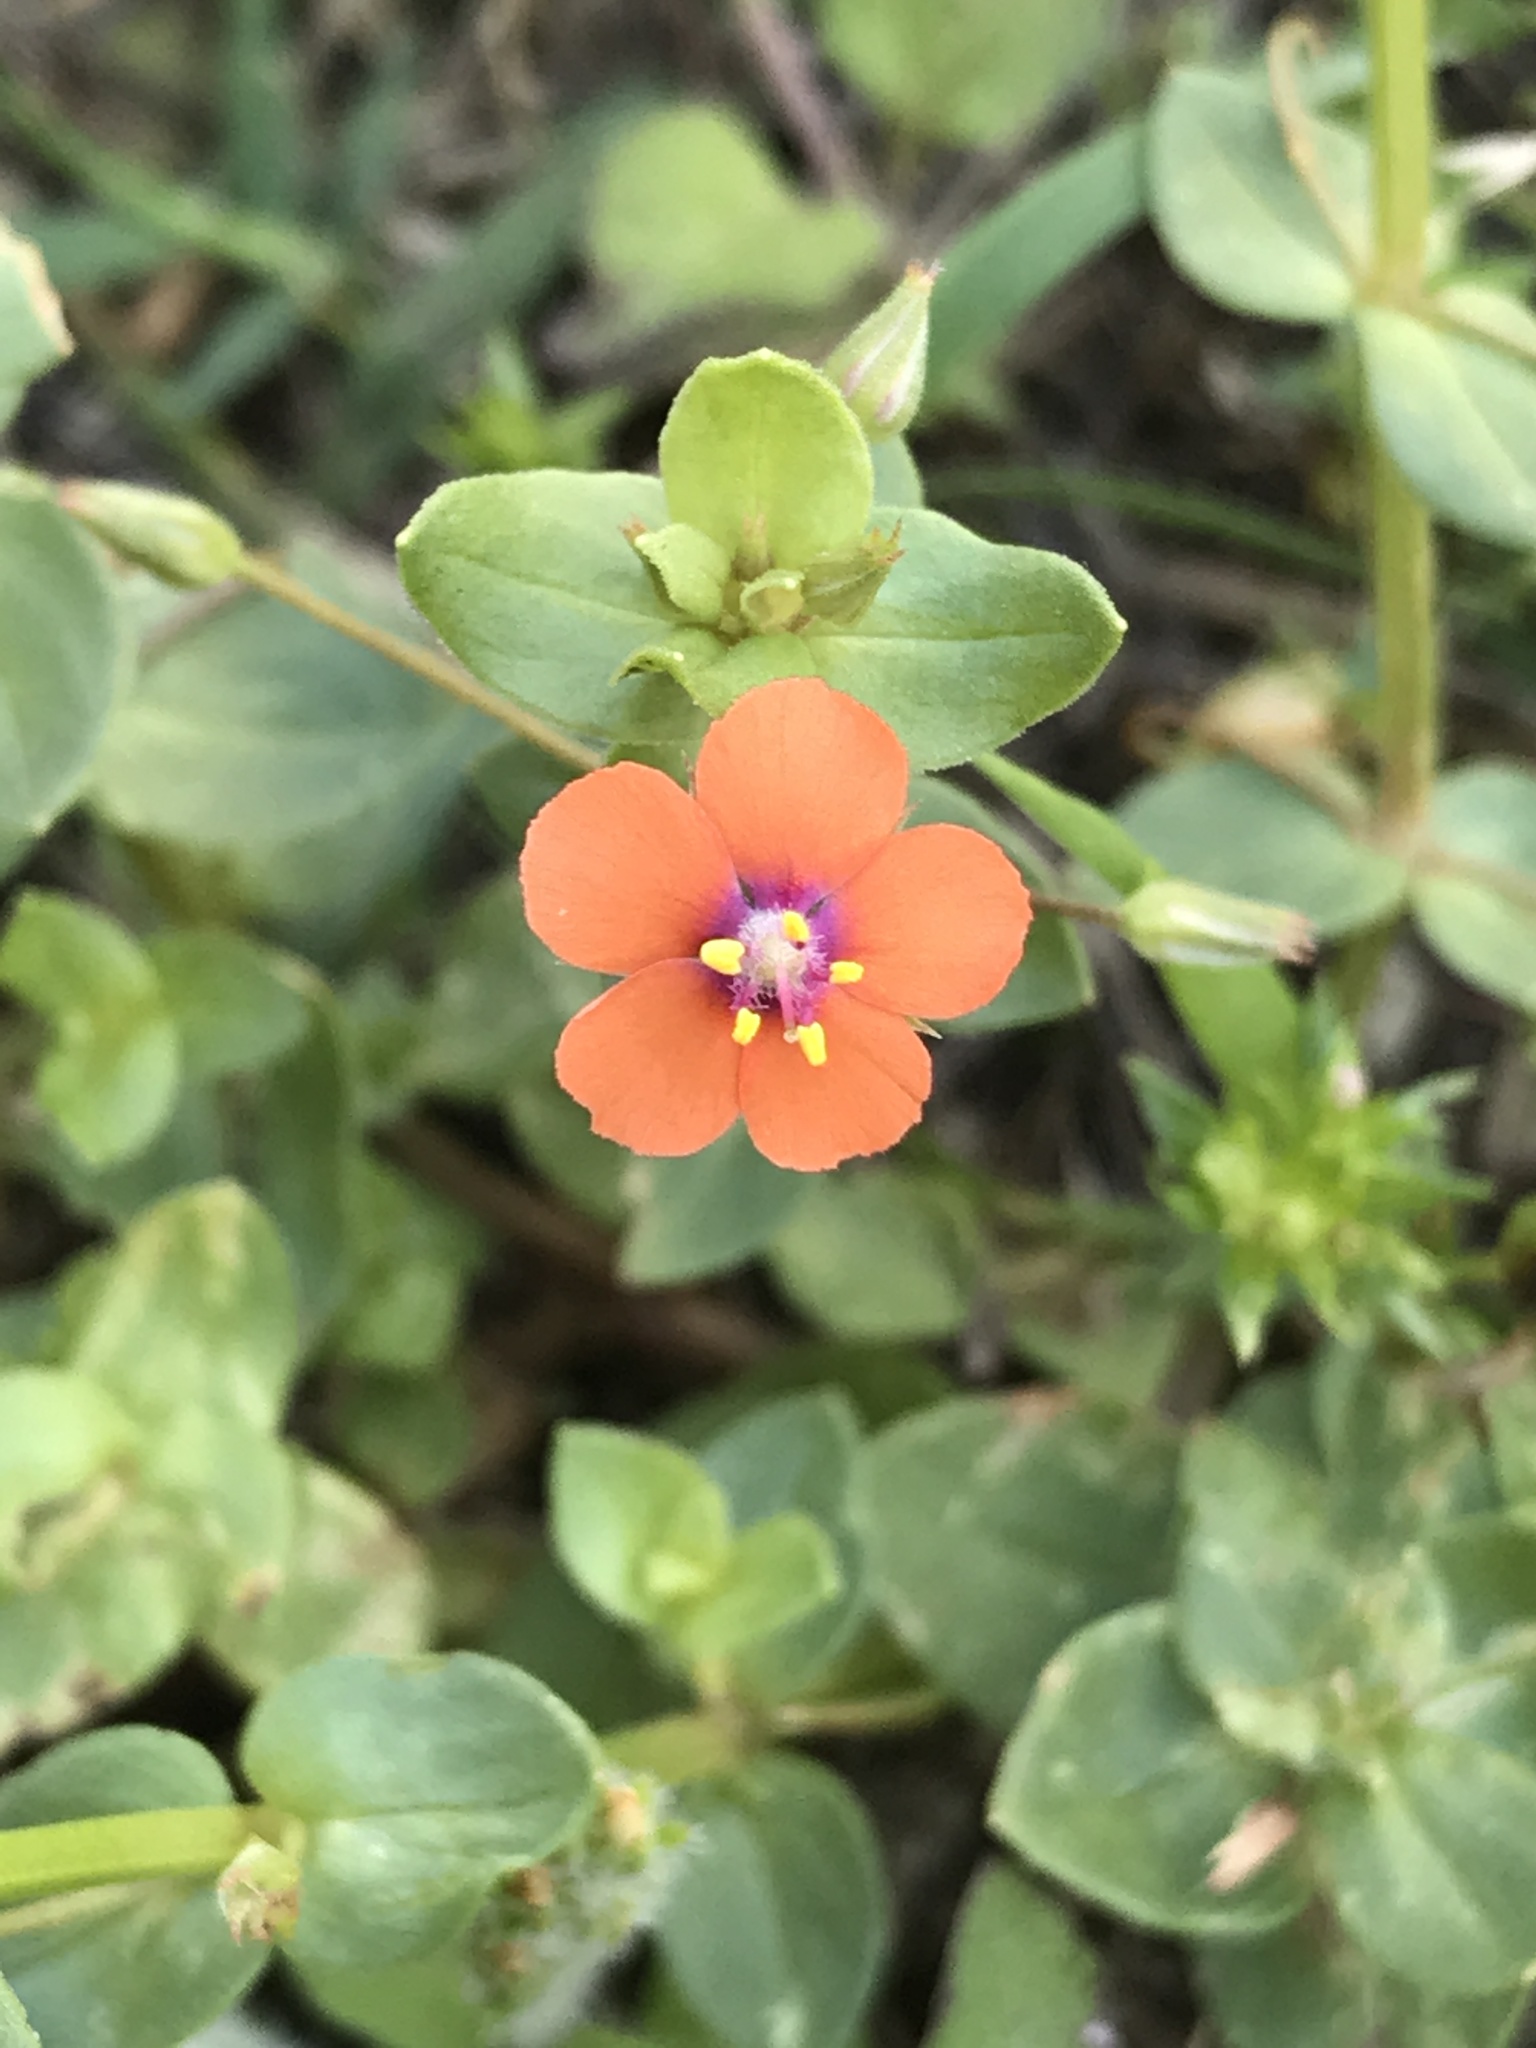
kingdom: Plantae
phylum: Tracheophyta
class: Magnoliopsida
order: Ericales
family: Primulaceae
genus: Lysimachia
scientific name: Lysimachia arvensis
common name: Scarlet pimpernel
